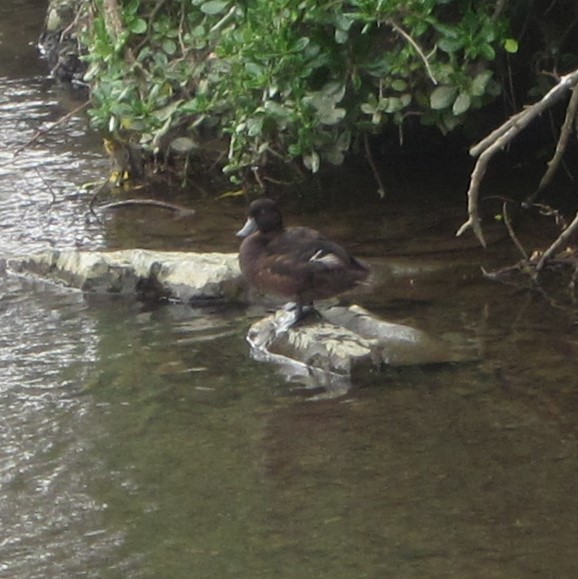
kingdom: Animalia
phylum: Chordata
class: Aves
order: Anseriformes
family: Anatidae
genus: Aythya
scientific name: Aythya novaeseelandiae
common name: New zealand scaup
